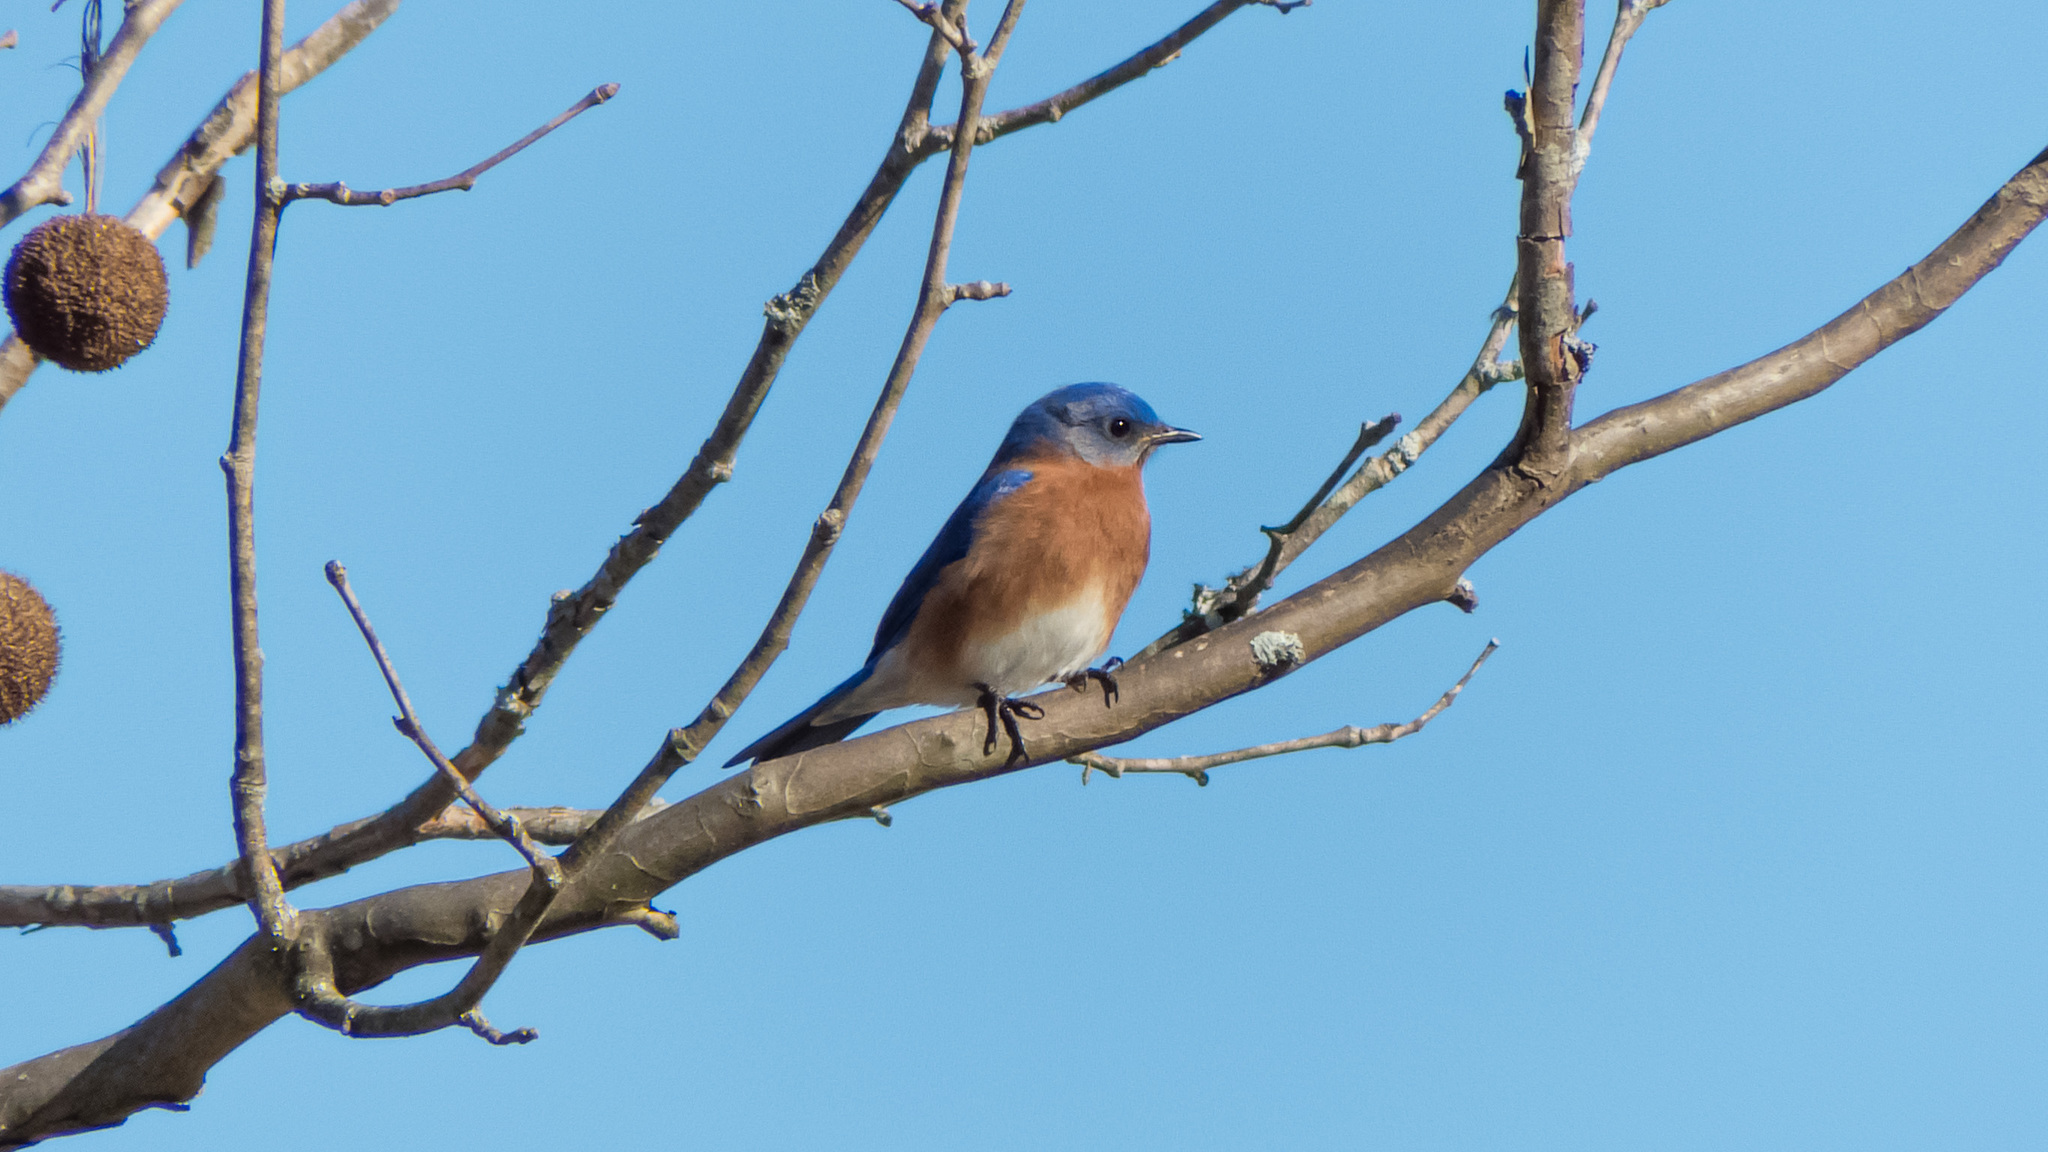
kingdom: Animalia
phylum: Chordata
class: Aves
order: Passeriformes
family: Turdidae
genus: Sialia
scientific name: Sialia sialis
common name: Eastern bluebird
